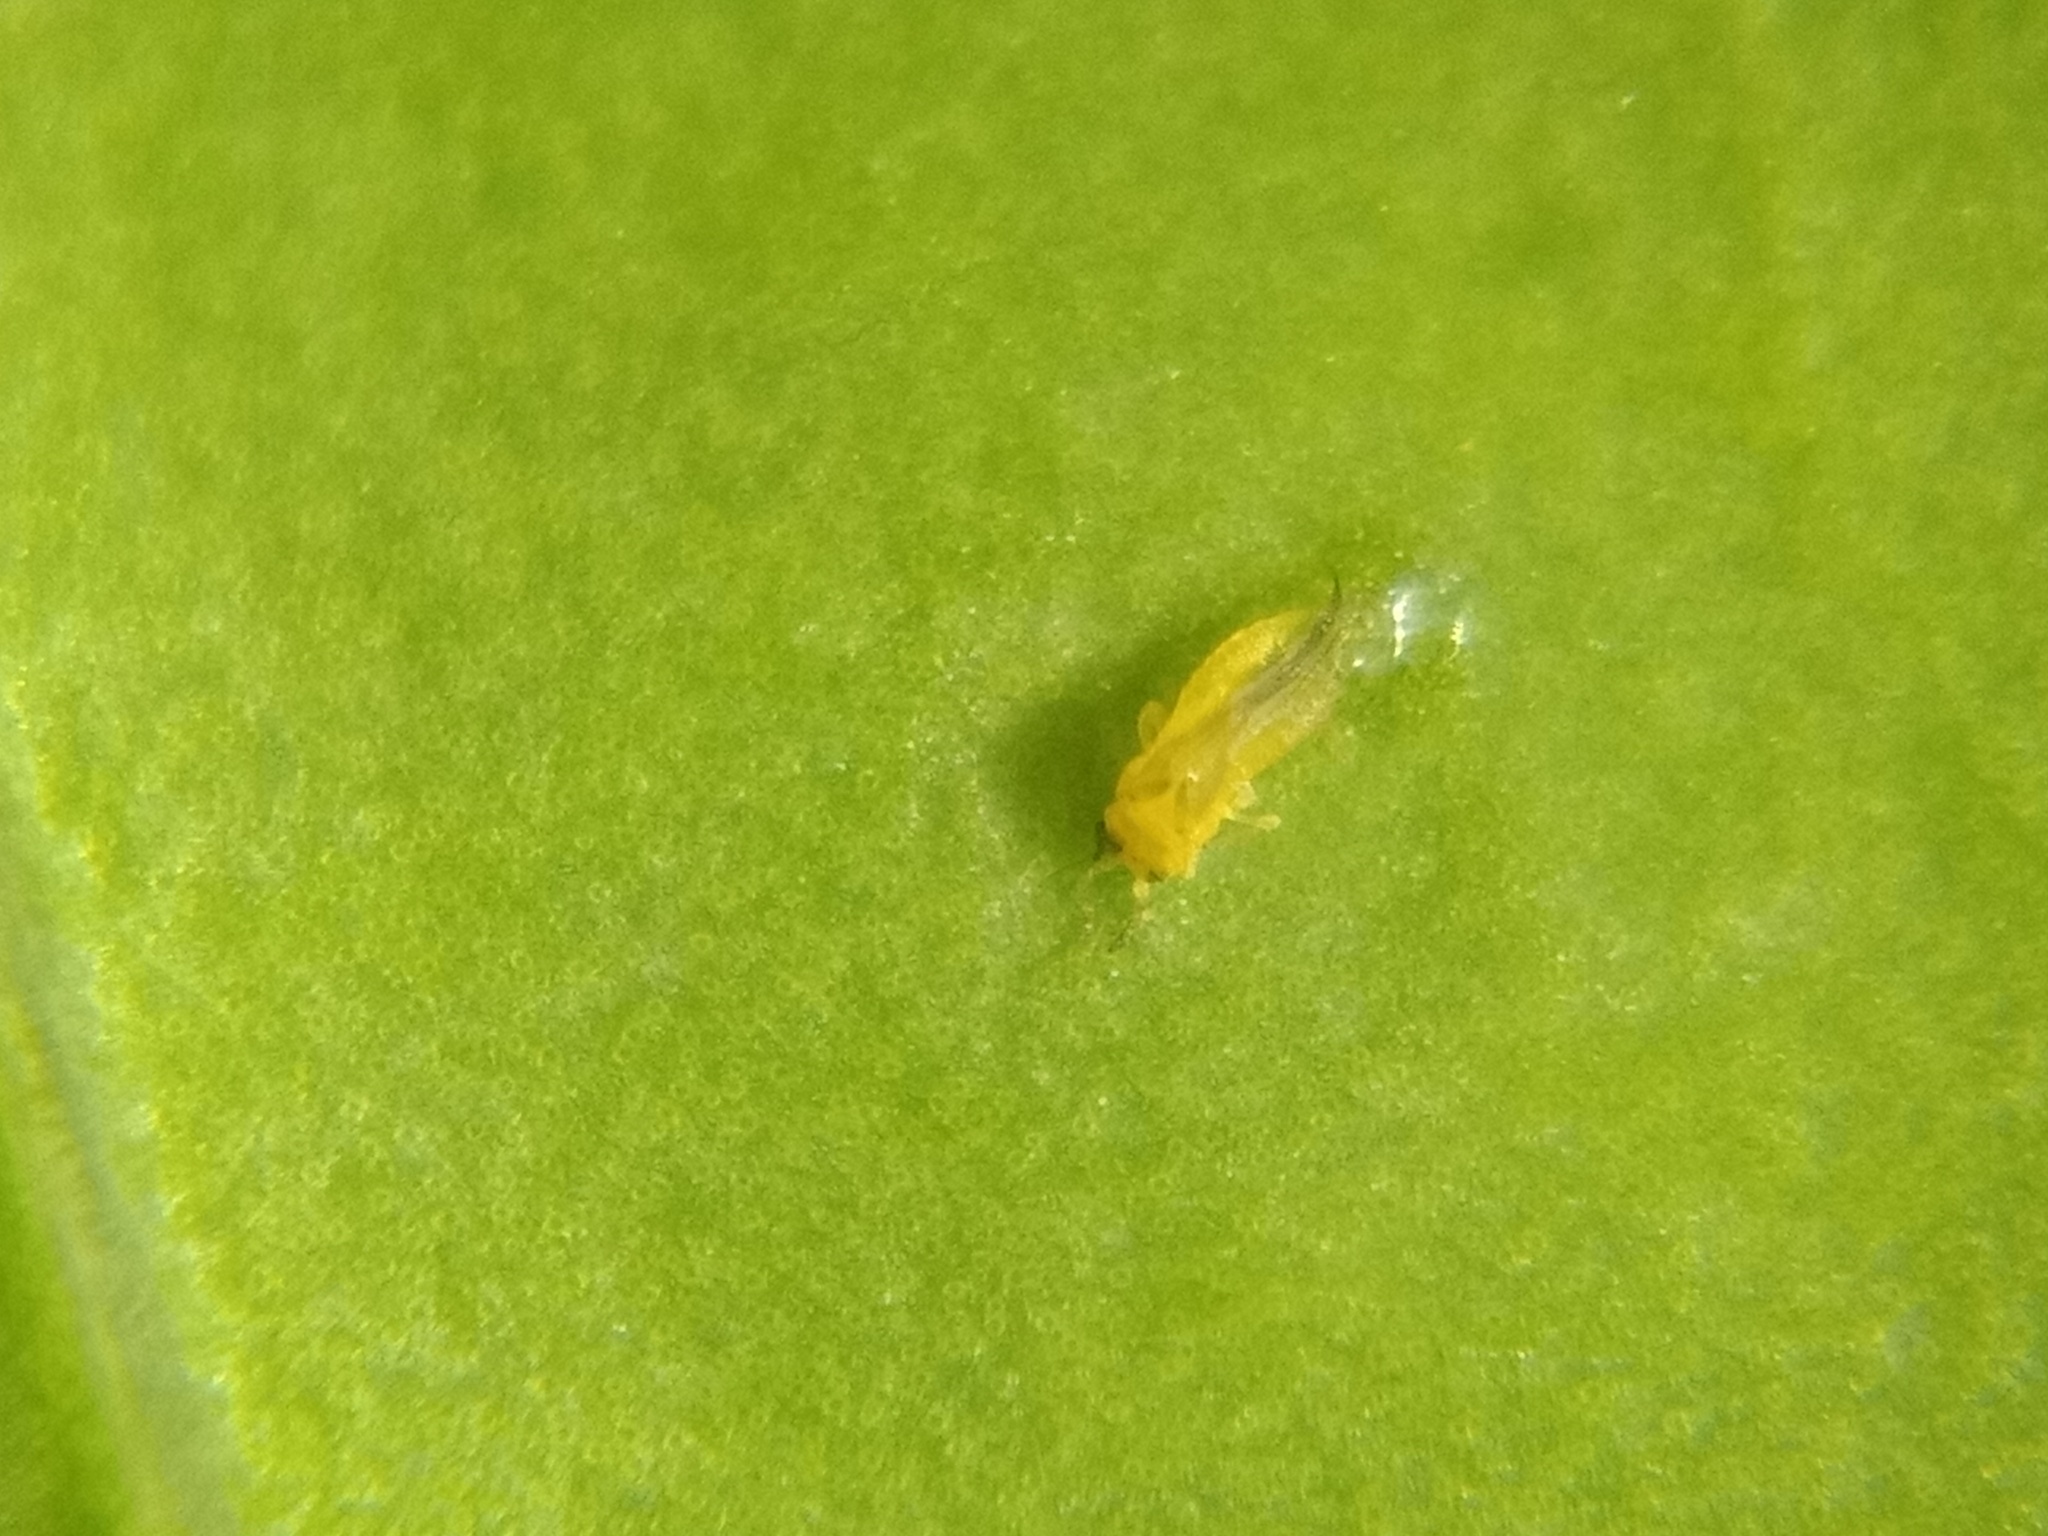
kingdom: Animalia
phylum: Arthropoda
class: Insecta
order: Thysanoptera
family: Thripidae
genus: Scirtothrips
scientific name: Scirtothrips dorsalis
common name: Thrips
